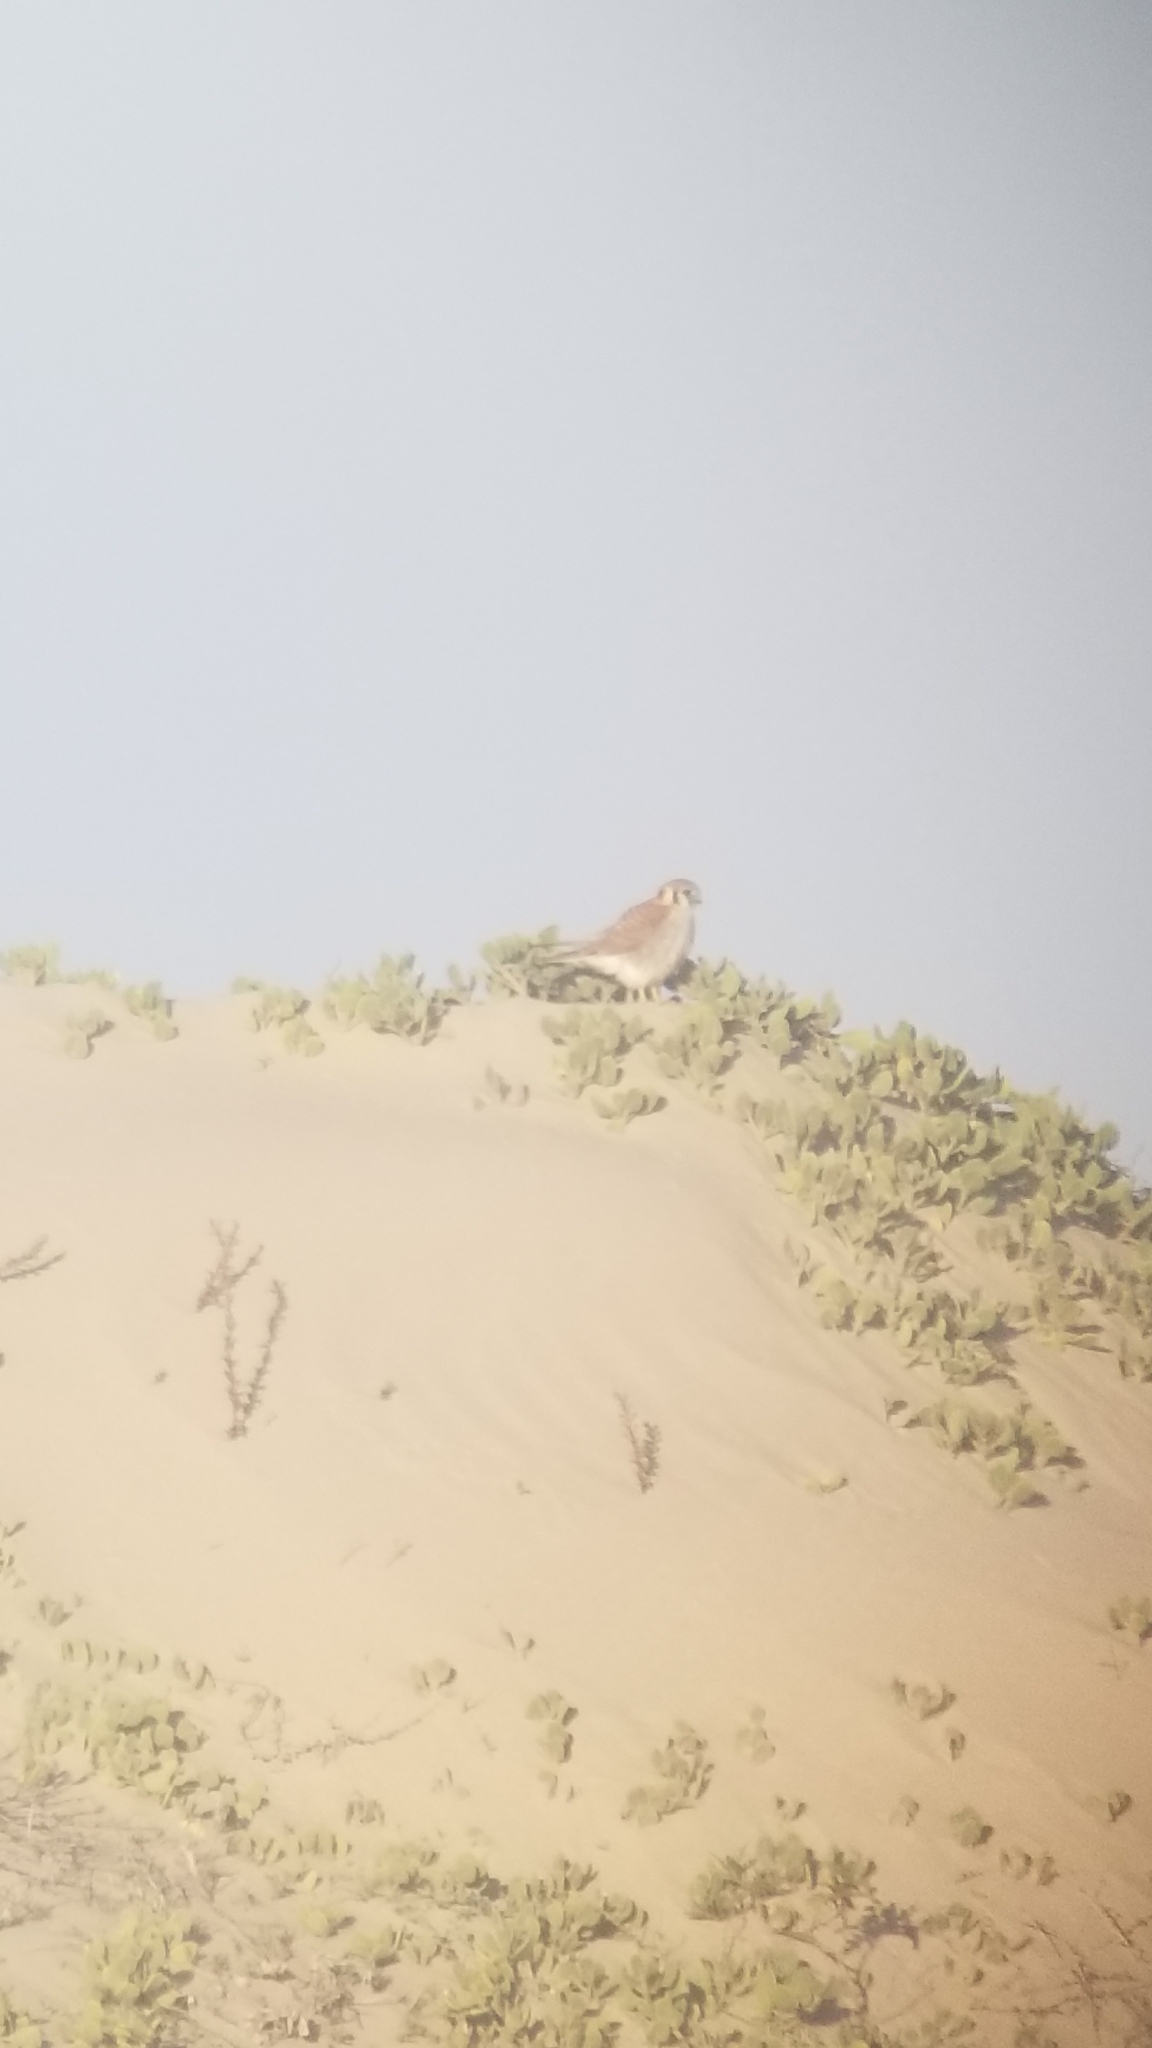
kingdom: Animalia
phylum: Chordata
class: Aves
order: Falconiformes
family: Falconidae
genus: Falco
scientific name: Falco sparverius
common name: American kestrel
